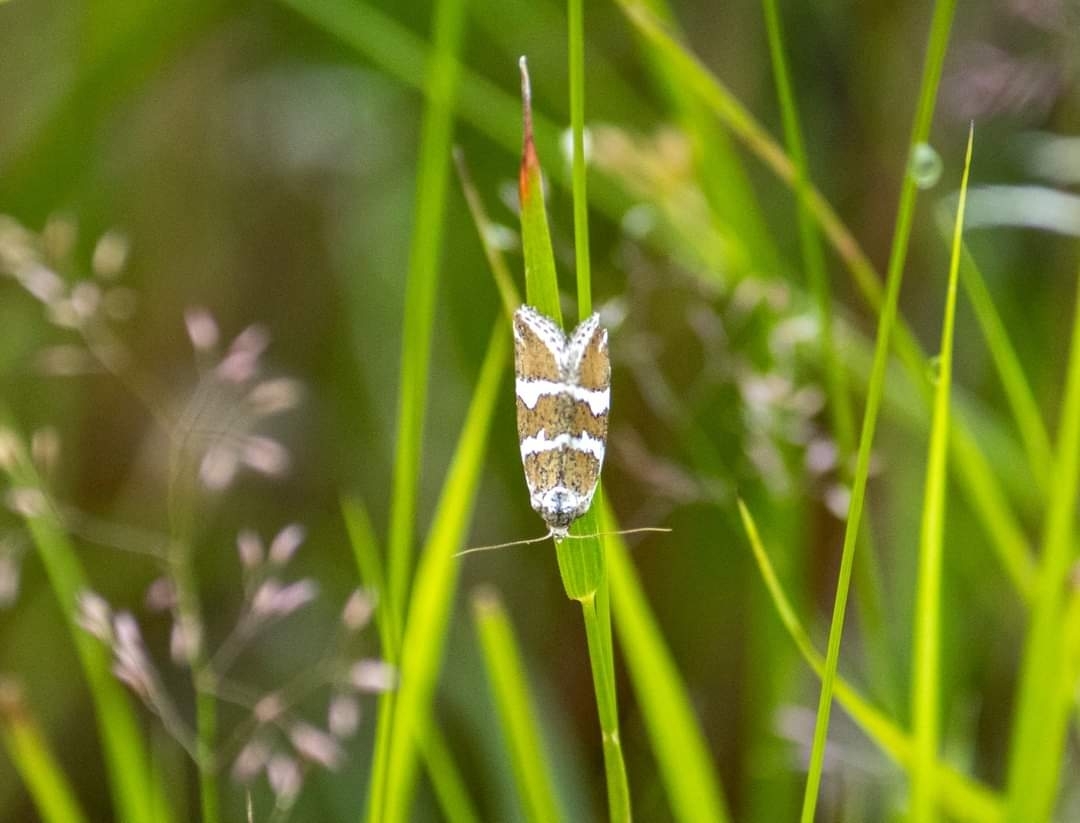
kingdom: Animalia
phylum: Arthropoda
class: Insecta
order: Lepidoptera
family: Noctuidae
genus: Deltote
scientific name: Deltote bankiana
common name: Silver barred
